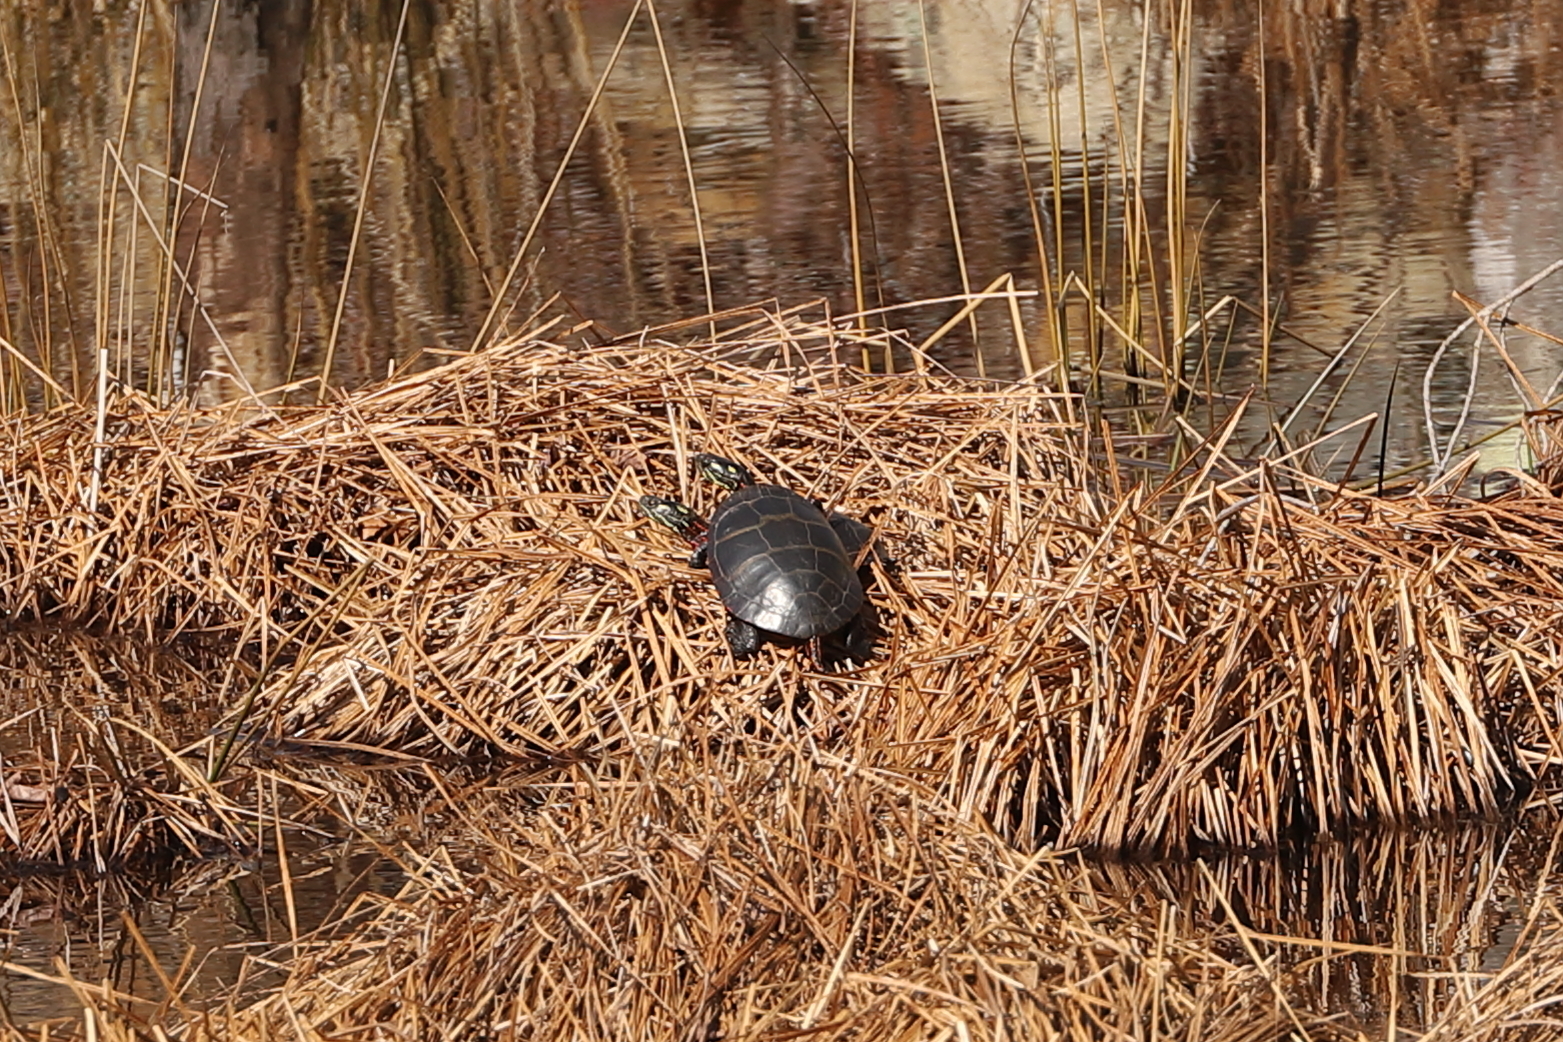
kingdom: Animalia
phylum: Chordata
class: Testudines
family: Emydidae
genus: Chrysemys
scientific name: Chrysemys picta
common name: Painted turtle
